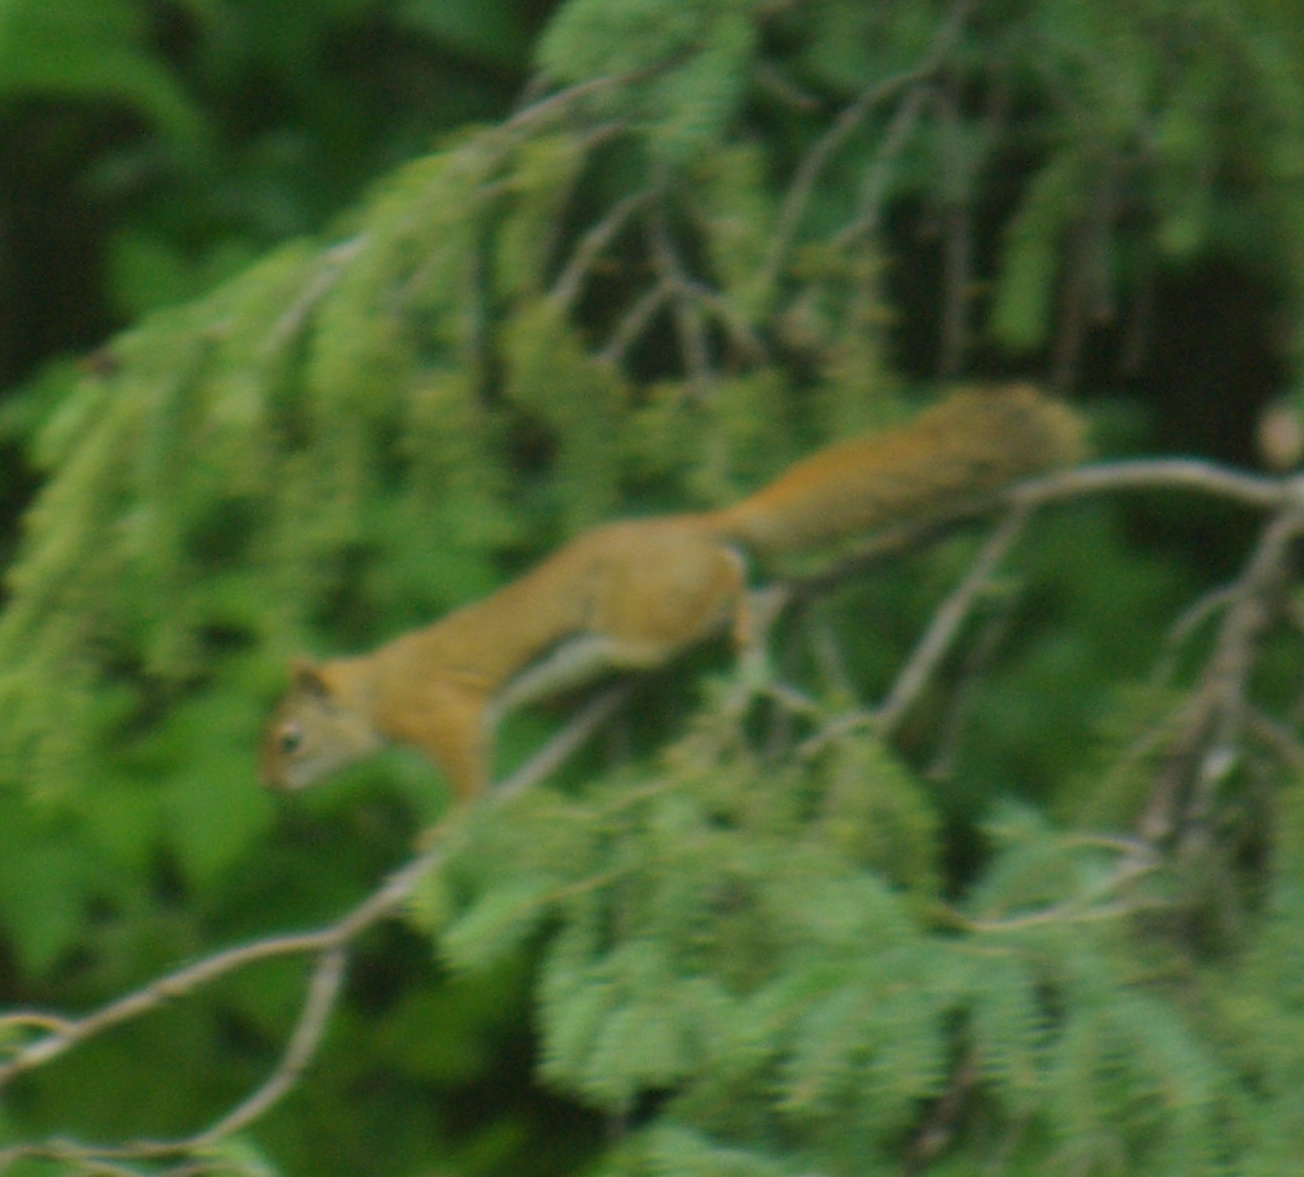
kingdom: Animalia
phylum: Chordata
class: Mammalia
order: Rodentia
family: Sciuridae
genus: Tamiasciurus
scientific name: Tamiasciurus hudsonicus
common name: Red squirrel
